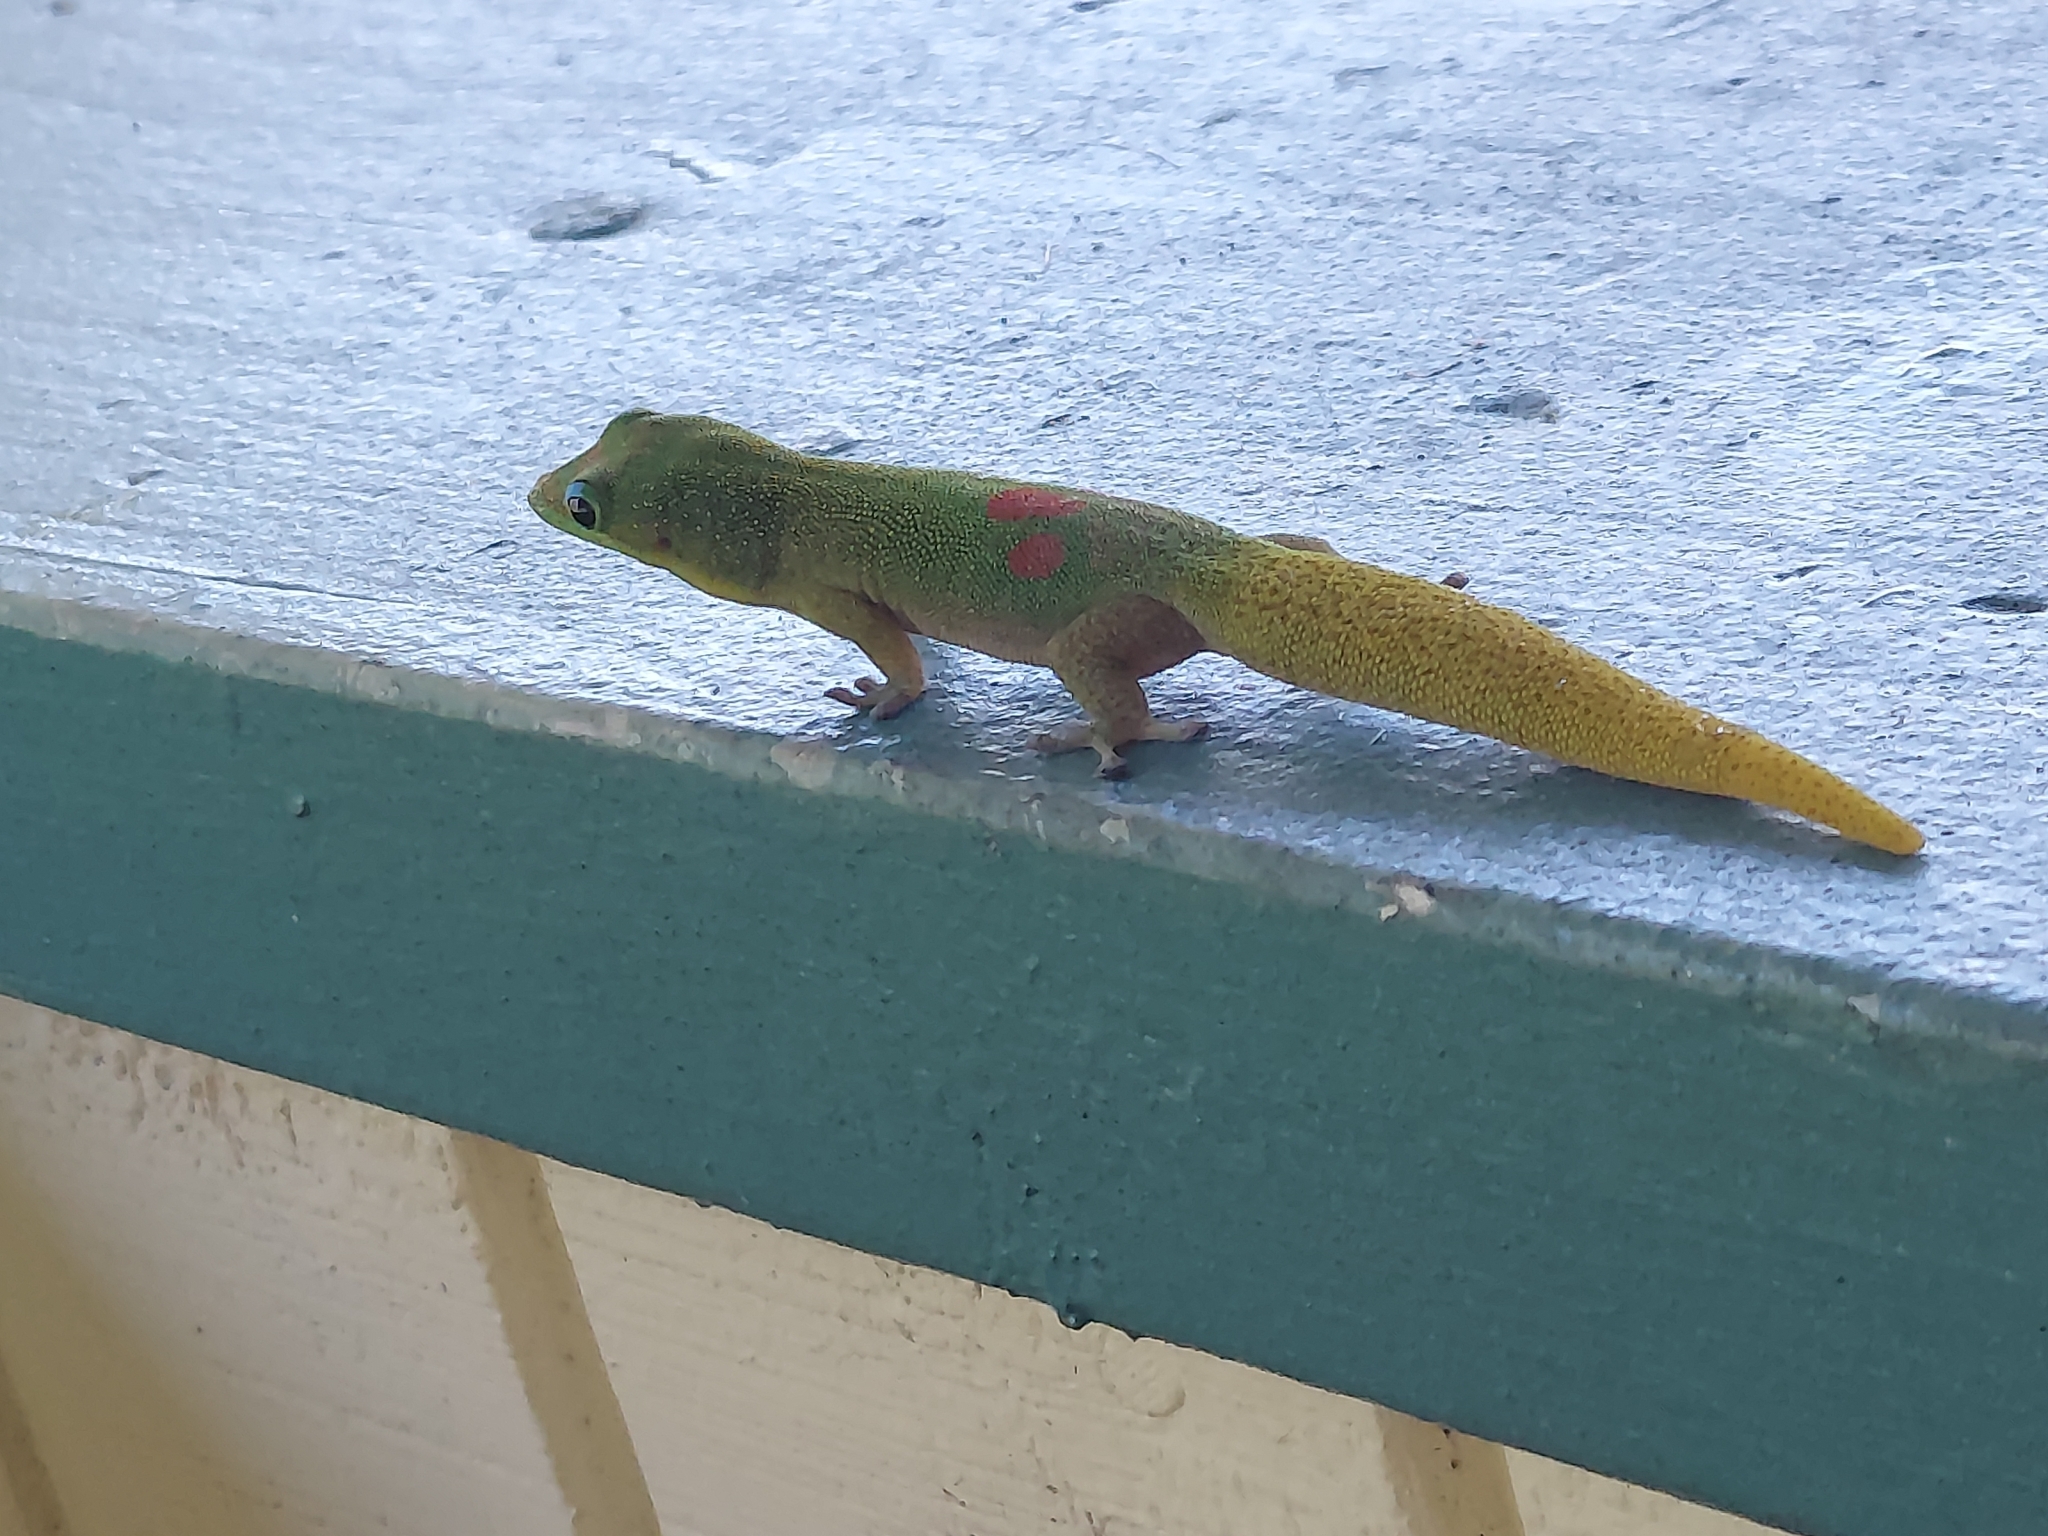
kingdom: Animalia
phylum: Chordata
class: Squamata
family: Gekkonidae
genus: Phelsuma
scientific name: Phelsuma laticauda
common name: Gold dust day gecko
